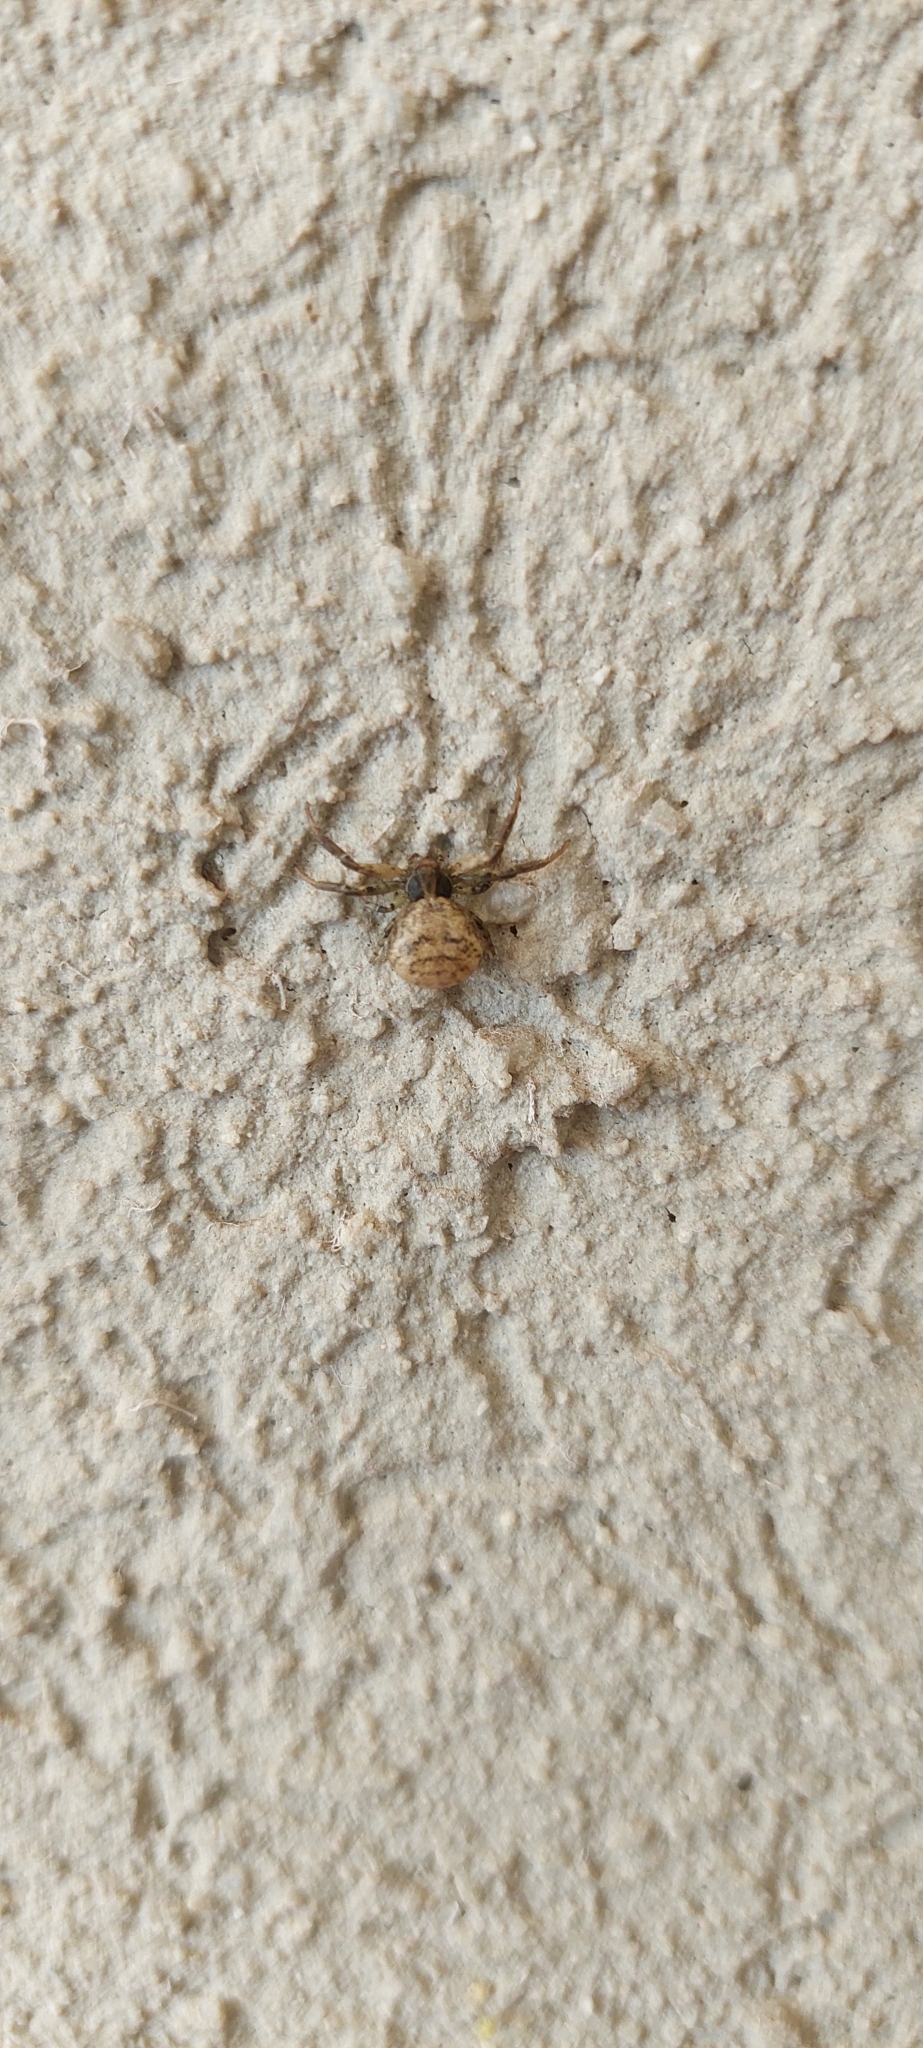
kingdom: Animalia
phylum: Arthropoda
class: Arachnida
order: Araneae
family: Thomisidae
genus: Misumenoides
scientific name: Misumenoides athleticus
